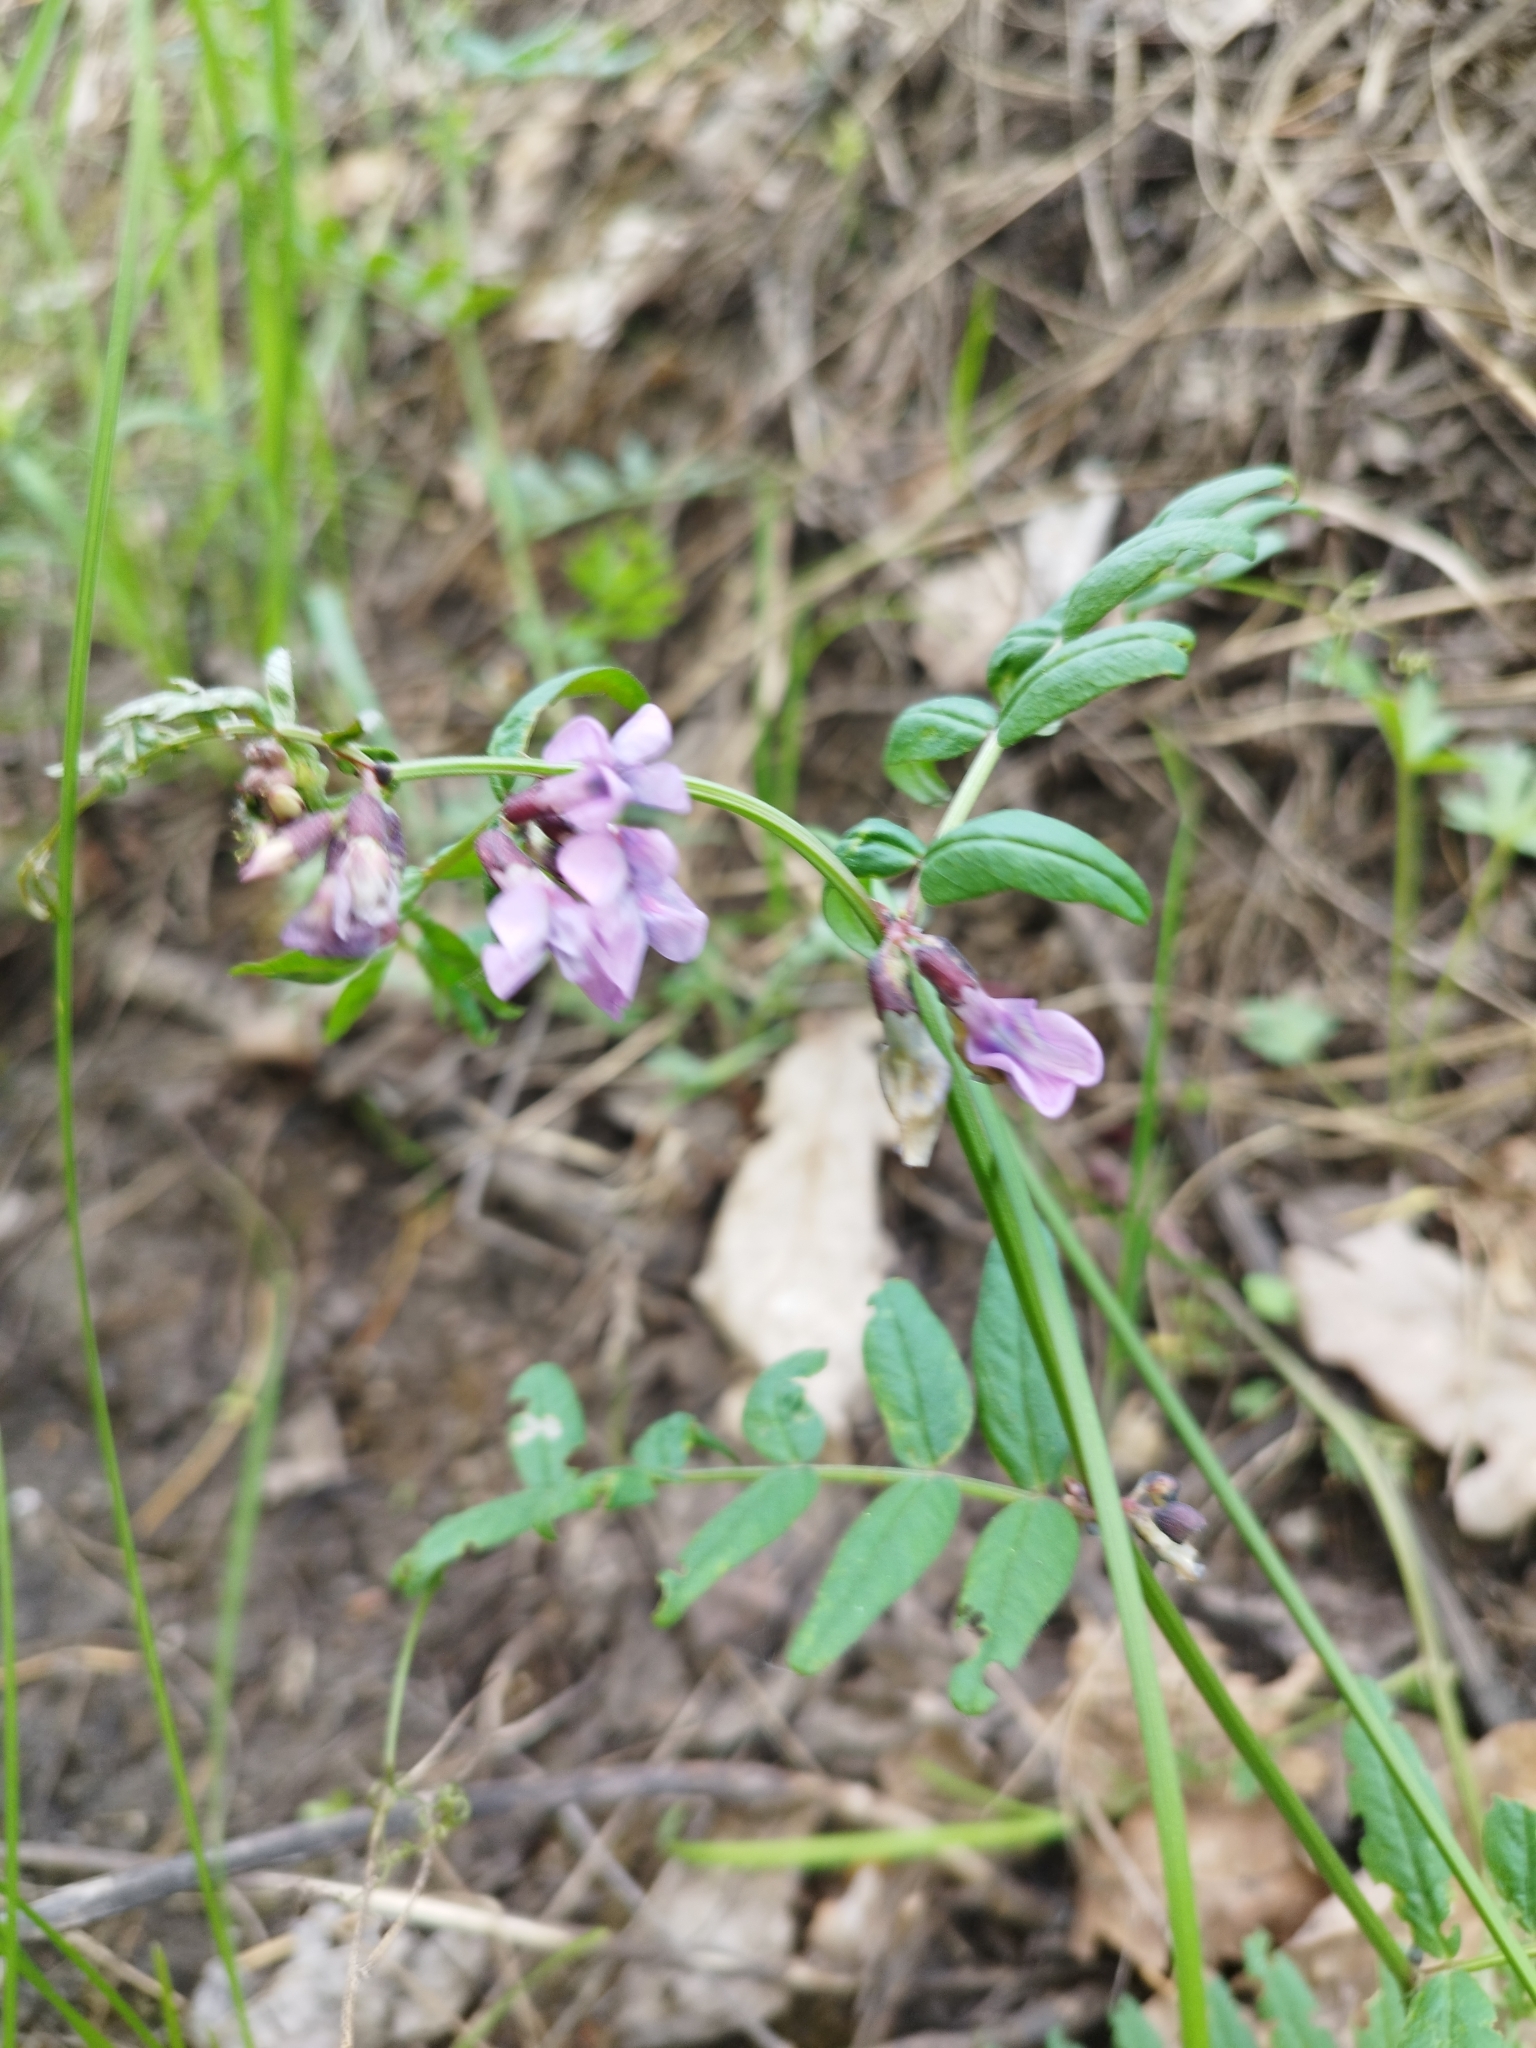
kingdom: Plantae
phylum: Tracheophyta
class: Magnoliopsida
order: Fabales
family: Fabaceae
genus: Lathyrus
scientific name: Lathyrus pisiformis
